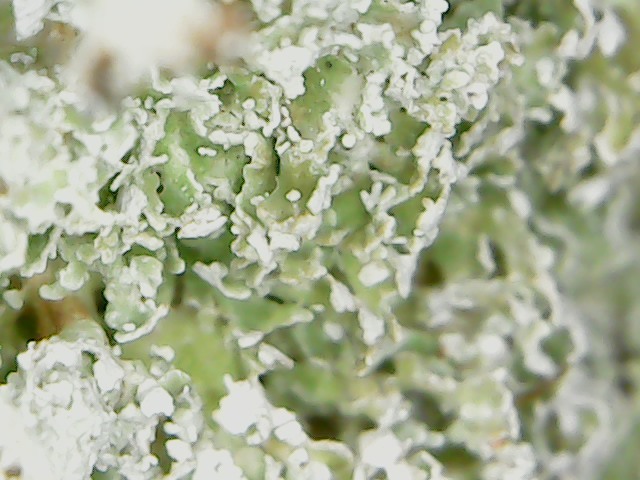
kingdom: Fungi
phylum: Ascomycota
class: Lecanoromycetes
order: Lecanorales
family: Cladoniaceae
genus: Cladonia
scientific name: Cladonia squamosa
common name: Dragon horn
